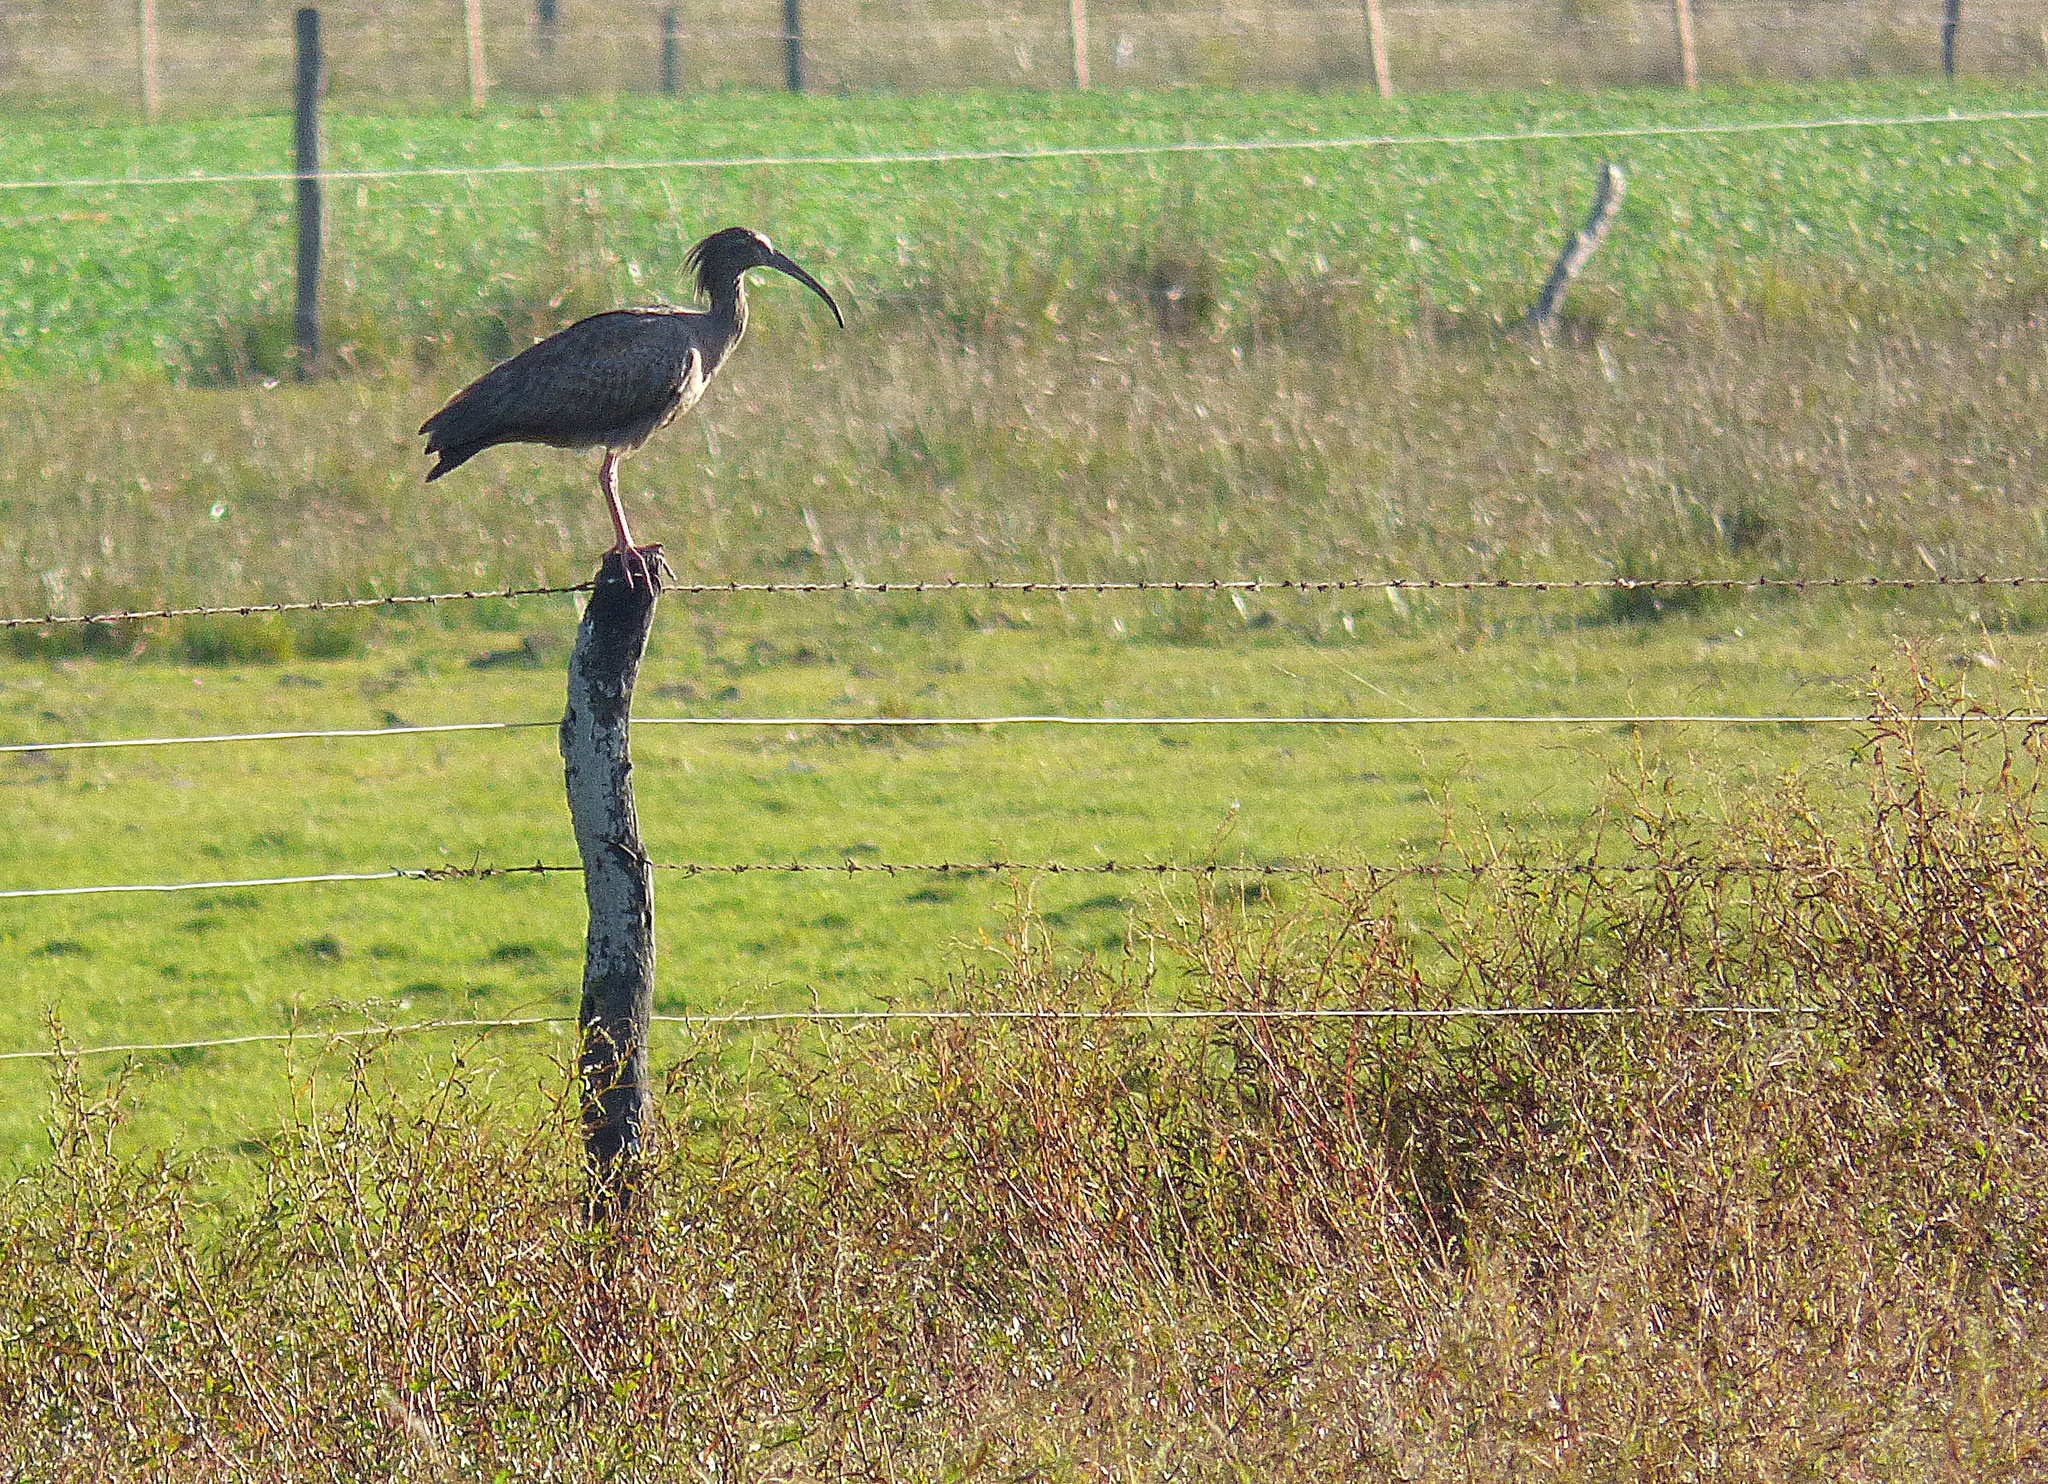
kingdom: Animalia
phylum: Chordata
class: Aves
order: Pelecaniformes
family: Threskiornithidae
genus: Theristicus
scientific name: Theristicus caerulescens
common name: Plumbeous ibis
